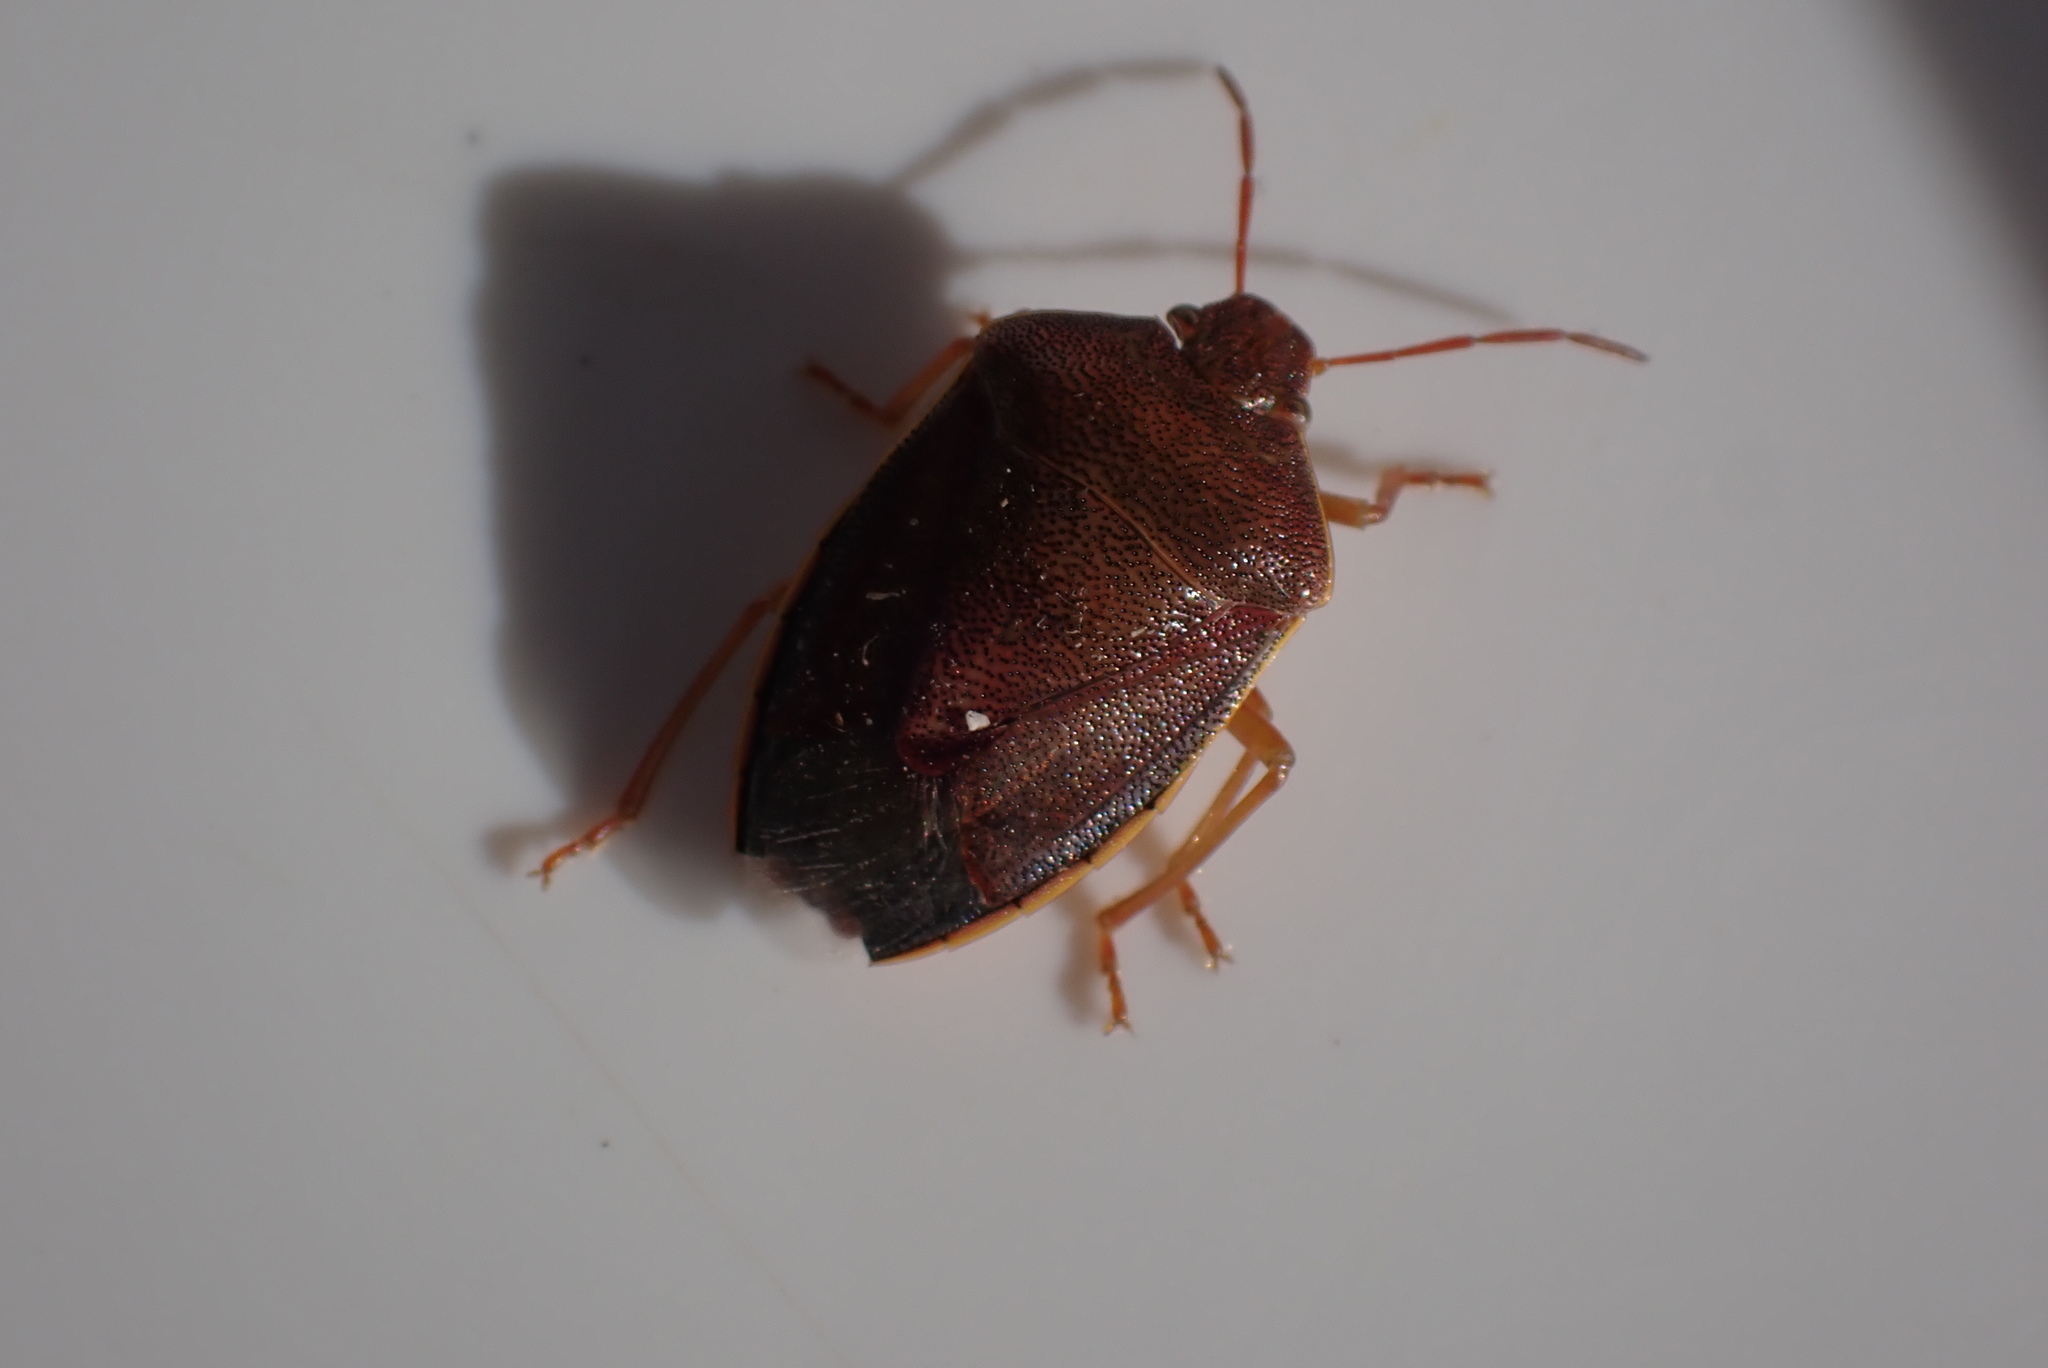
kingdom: Animalia
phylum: Arthropoda
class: Insecta
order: Hemiptera
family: Pentatomidae
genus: Piezodorus
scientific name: Piezodorus lituratus
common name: Stink bug
